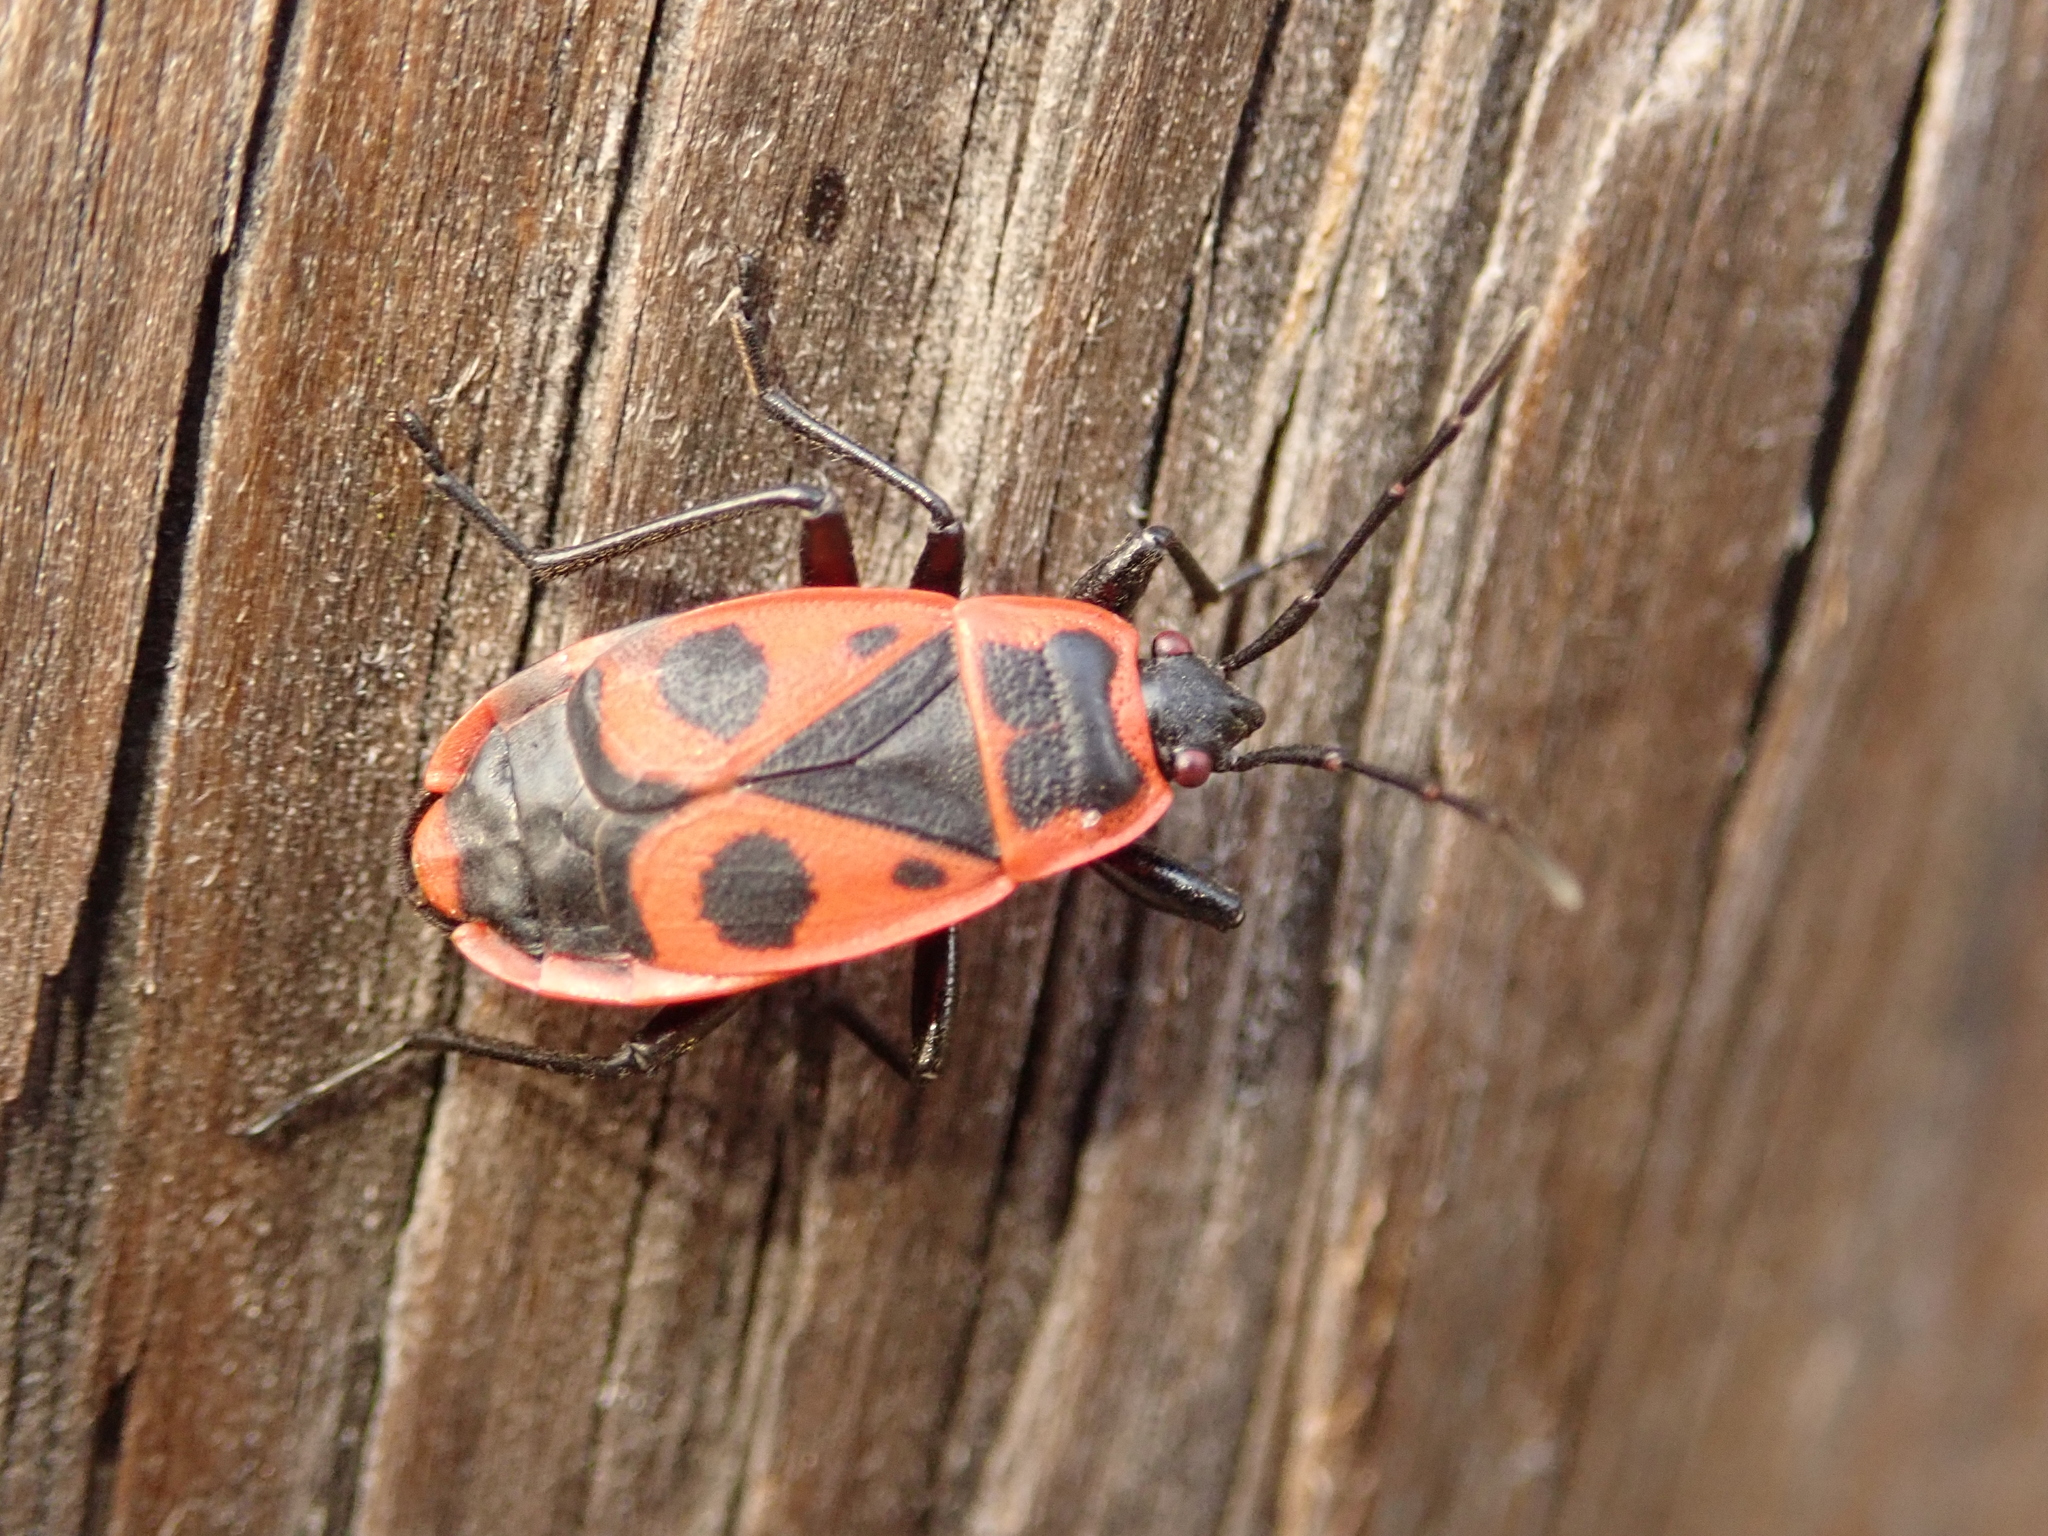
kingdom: Animalia
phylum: Arthropoda
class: Insecta
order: Hemiptera
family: Pyrrhocoridae
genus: Pyrrhocoris
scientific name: Pyrrhocoris apterus
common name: Firebug
